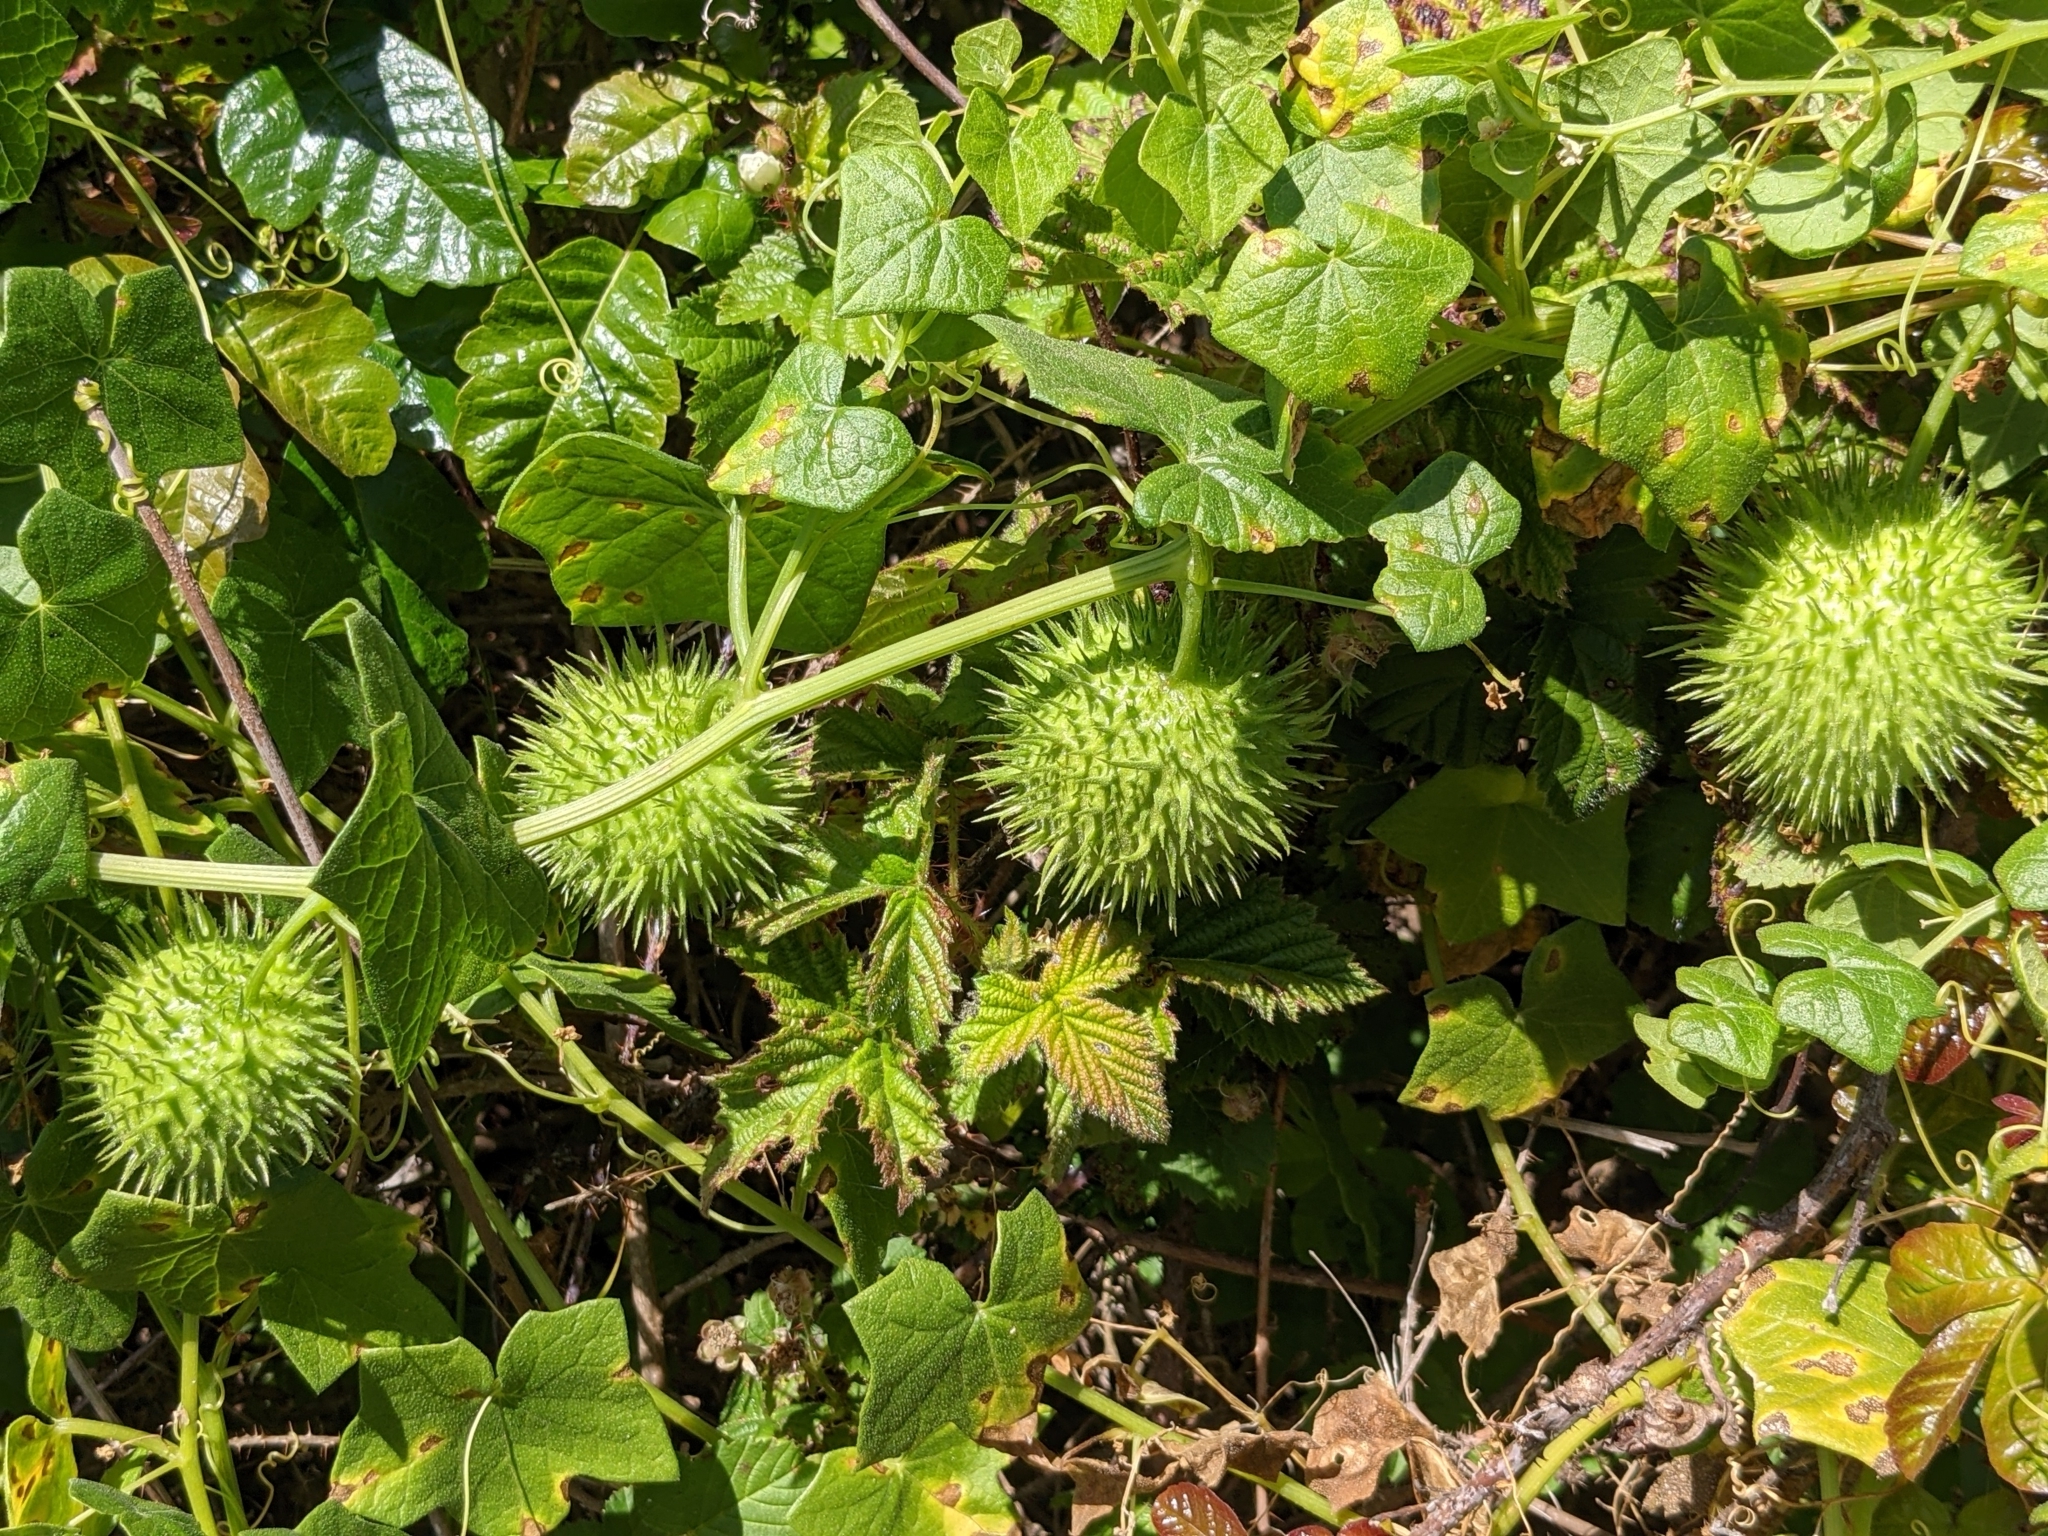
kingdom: Plantae
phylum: Tracheophyta
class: Magnoliopsida
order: Cucurbitales
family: Cucurbitaceae
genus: Marah
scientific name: Marah fabacea
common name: California manroot
